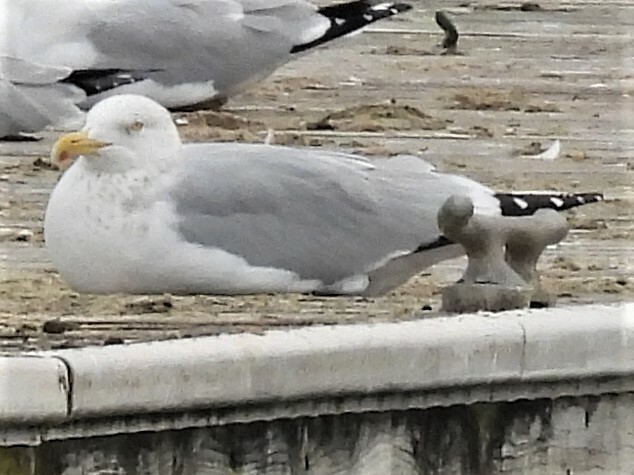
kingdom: Animalia
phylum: Chordata
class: Aves
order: Charadriiformes
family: Laridae
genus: Larus
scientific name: Larus argentatus
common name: Herring gull
